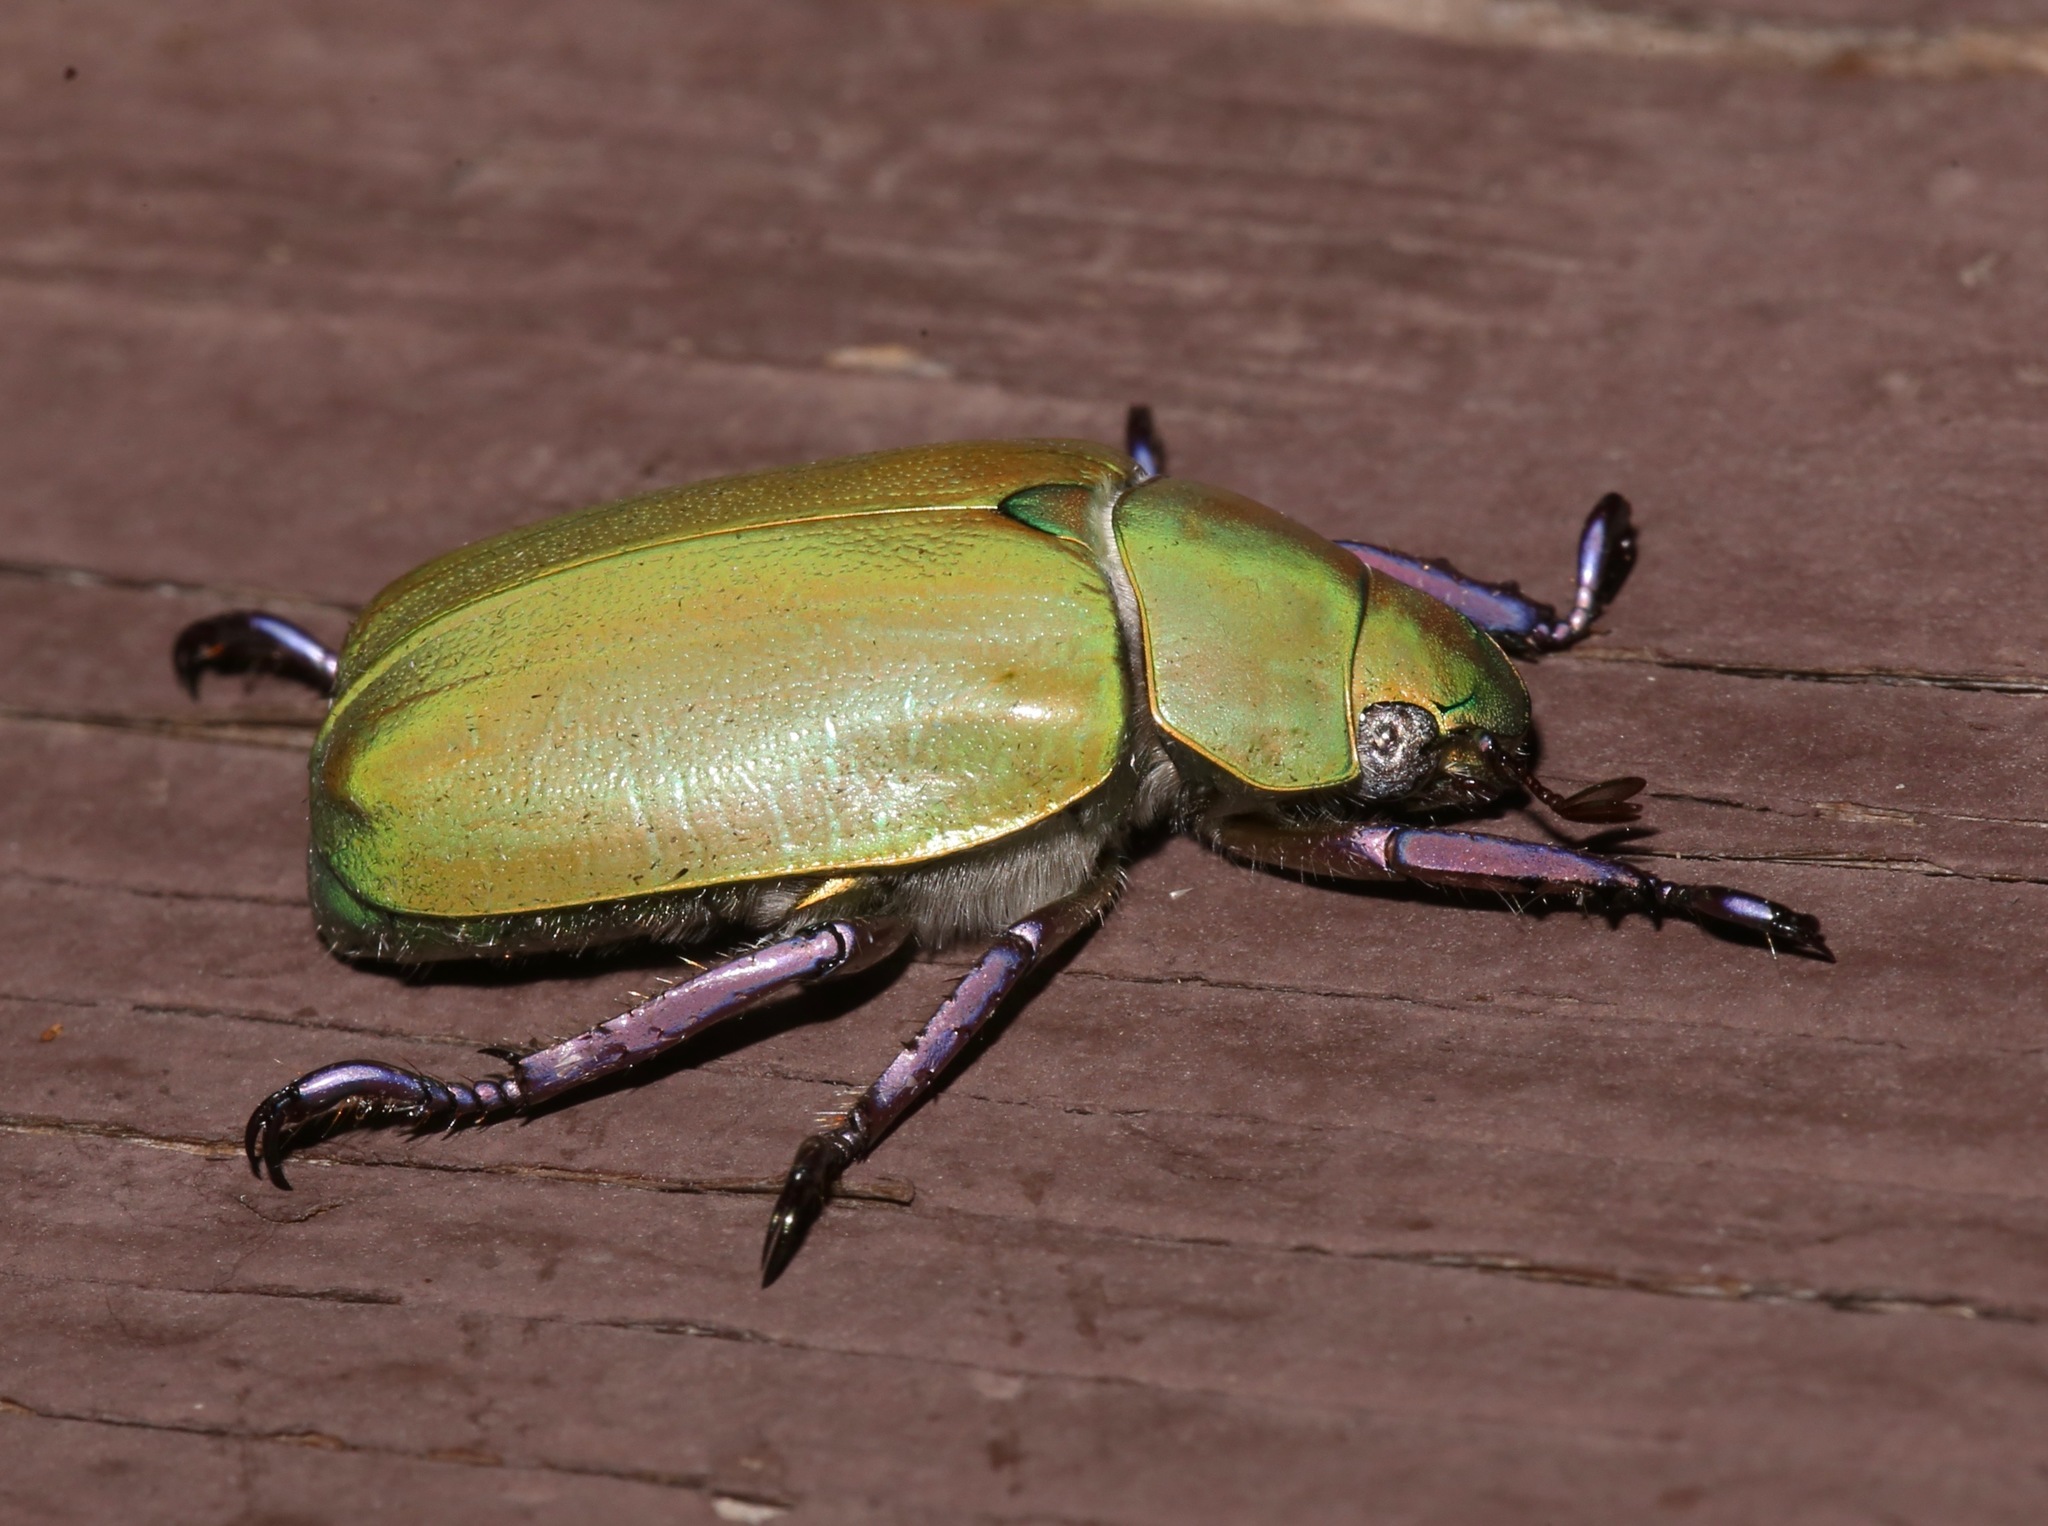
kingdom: Animalia
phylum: Arthropoda
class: Insecta
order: Coleoptera
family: Scarabaeidae
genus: Chrysina
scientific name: Chrysina beyeri
